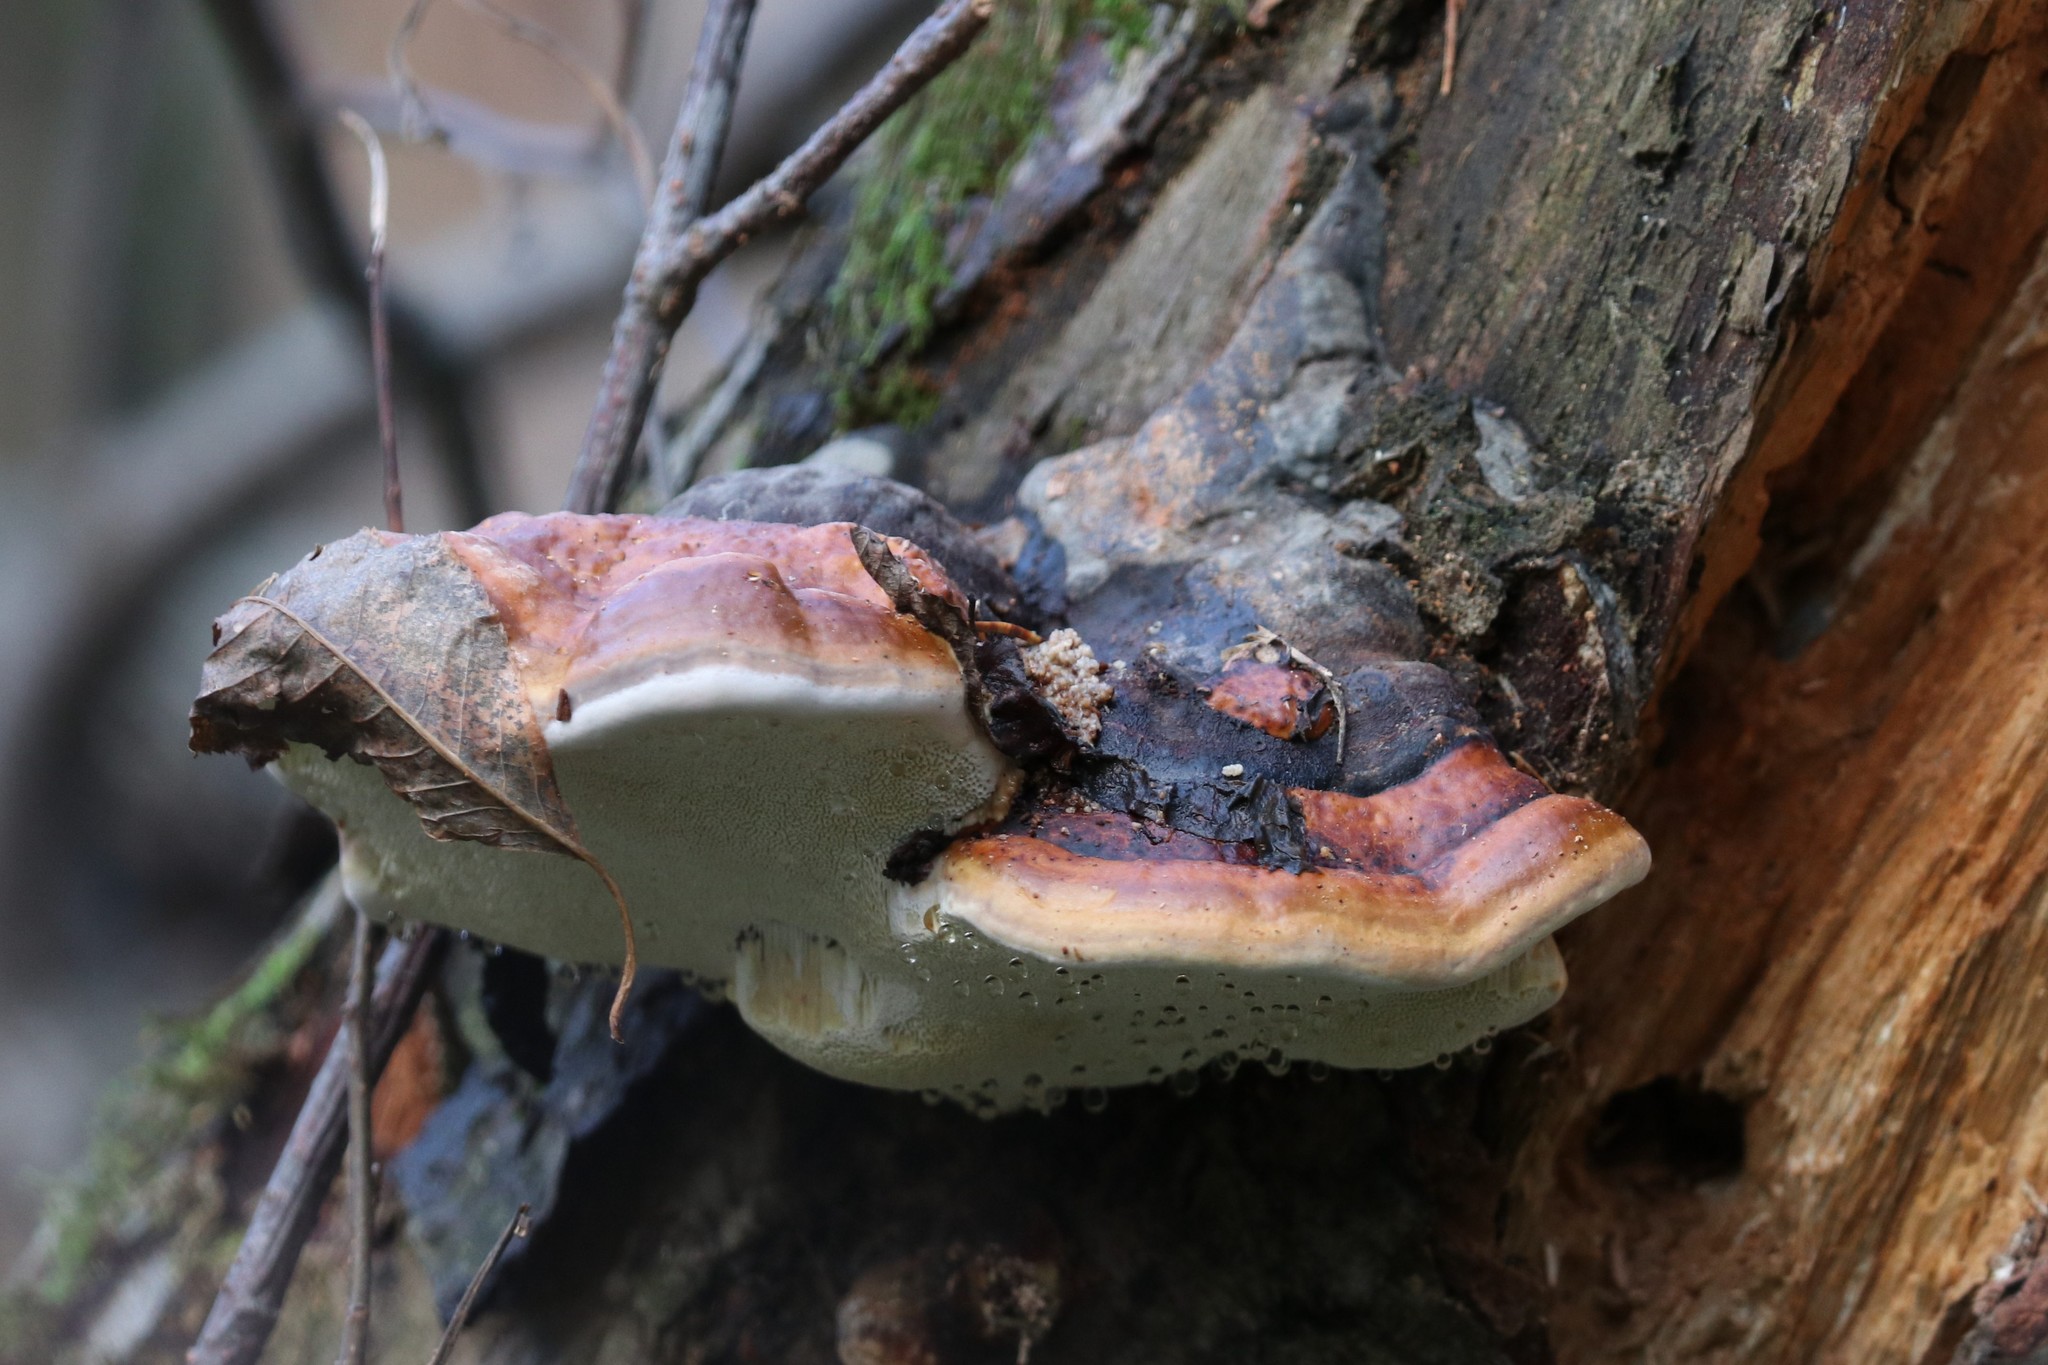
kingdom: Fungi
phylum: Basidiomycota
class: Agaricomycetes
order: Polyporales
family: Fomitopsidaceae
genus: Fomitopsis
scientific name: Fomitopsis pinicola
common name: Red-belted bracket
